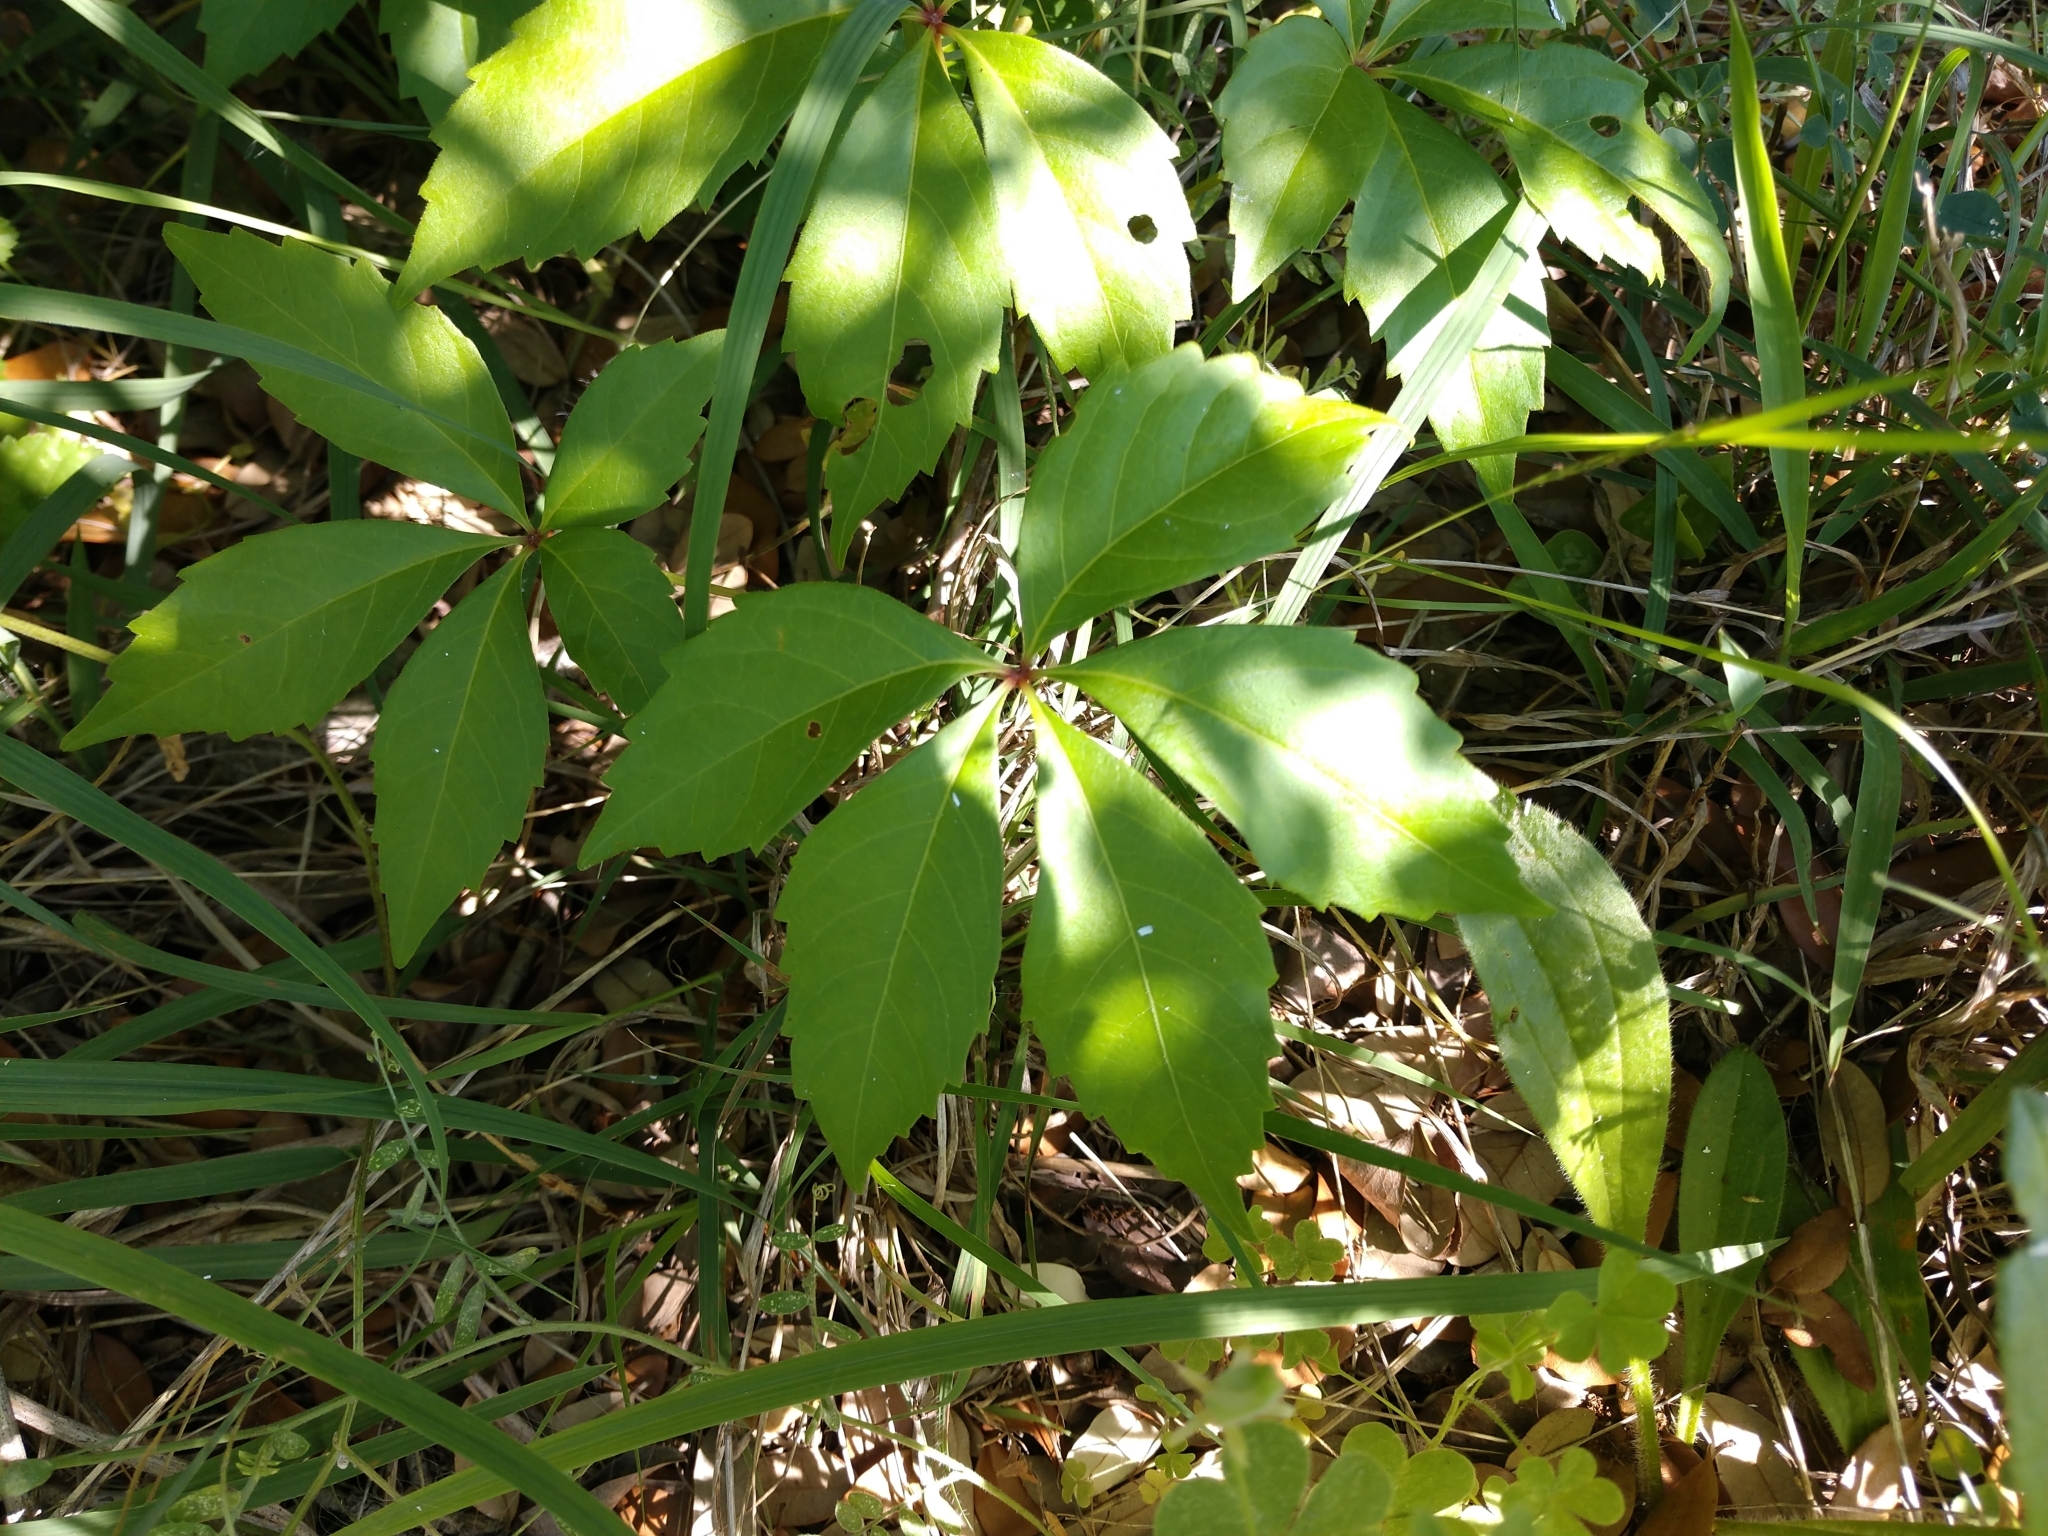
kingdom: Plantae
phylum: Tracheophyta
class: Magnoliopsida
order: Vitales
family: Vitaceae
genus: Parthenocissus
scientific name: Parthenocissus quinquefolia
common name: Virginia-creeper
